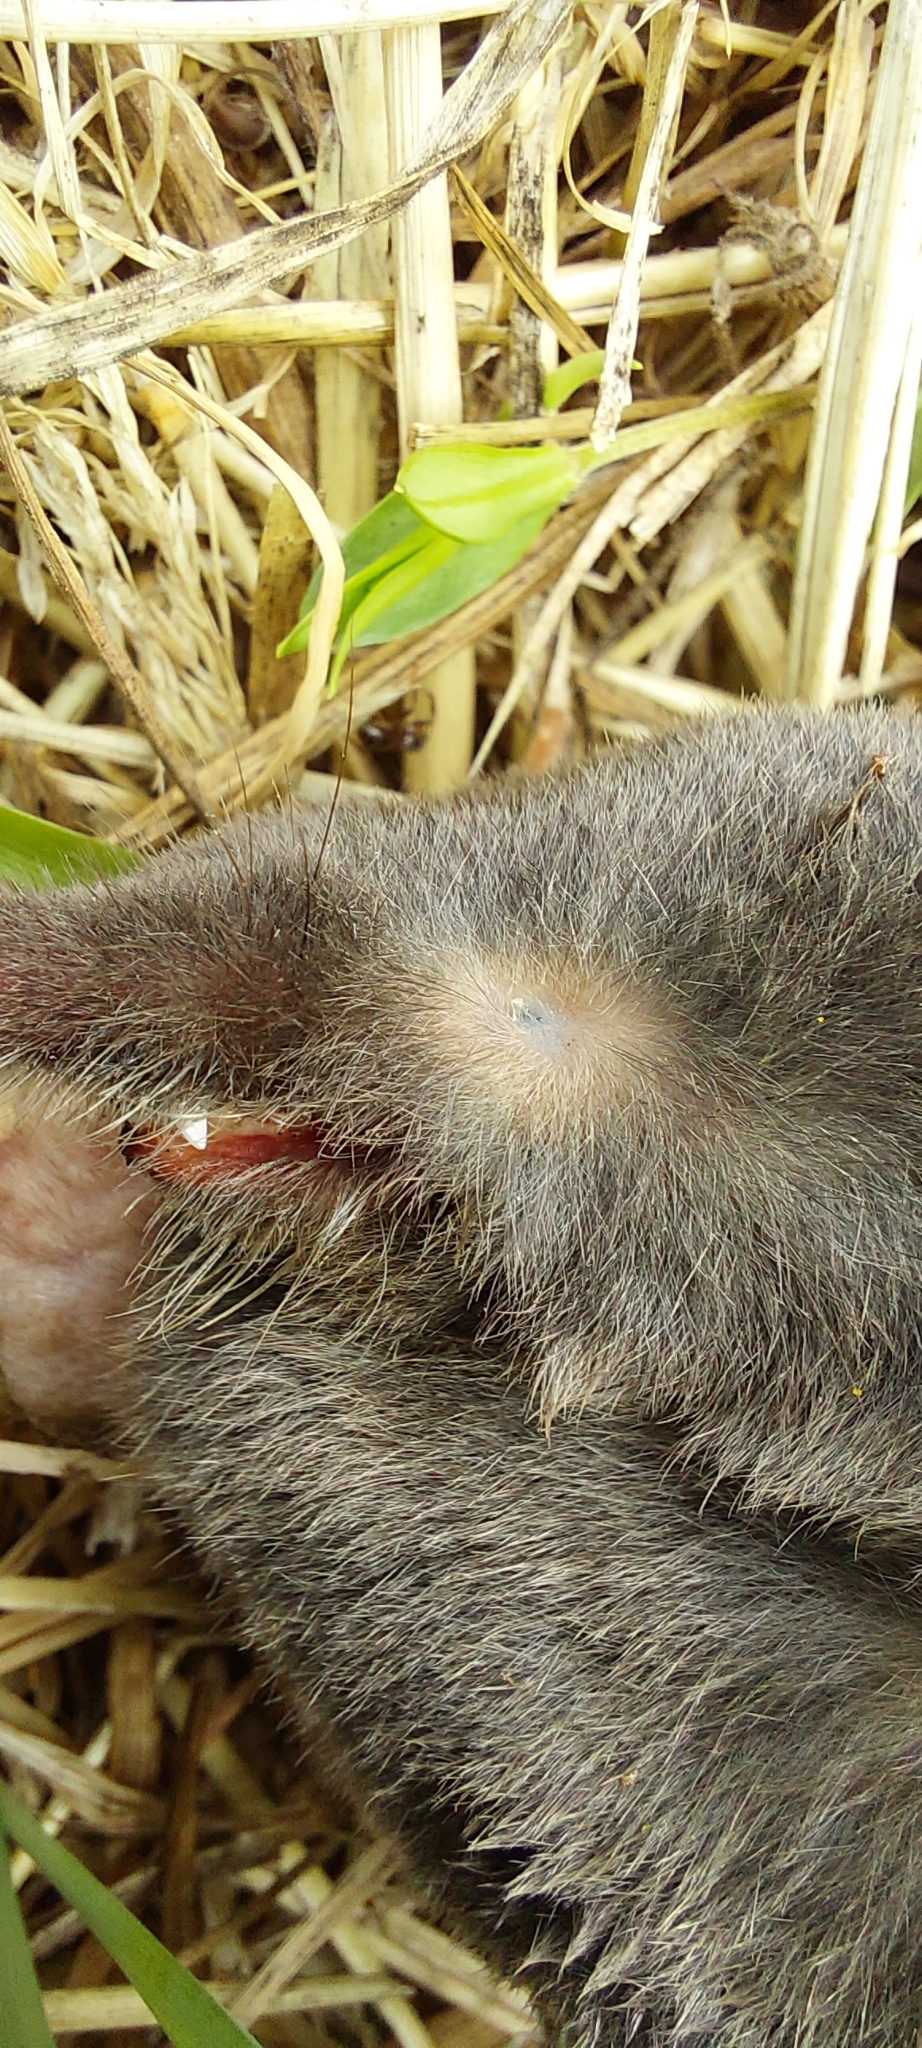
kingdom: Animalia
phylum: Chordata
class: Mammalia
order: Soricomorpha
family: Talpidae
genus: Talpa
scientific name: Talpa europaea
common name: European mole
